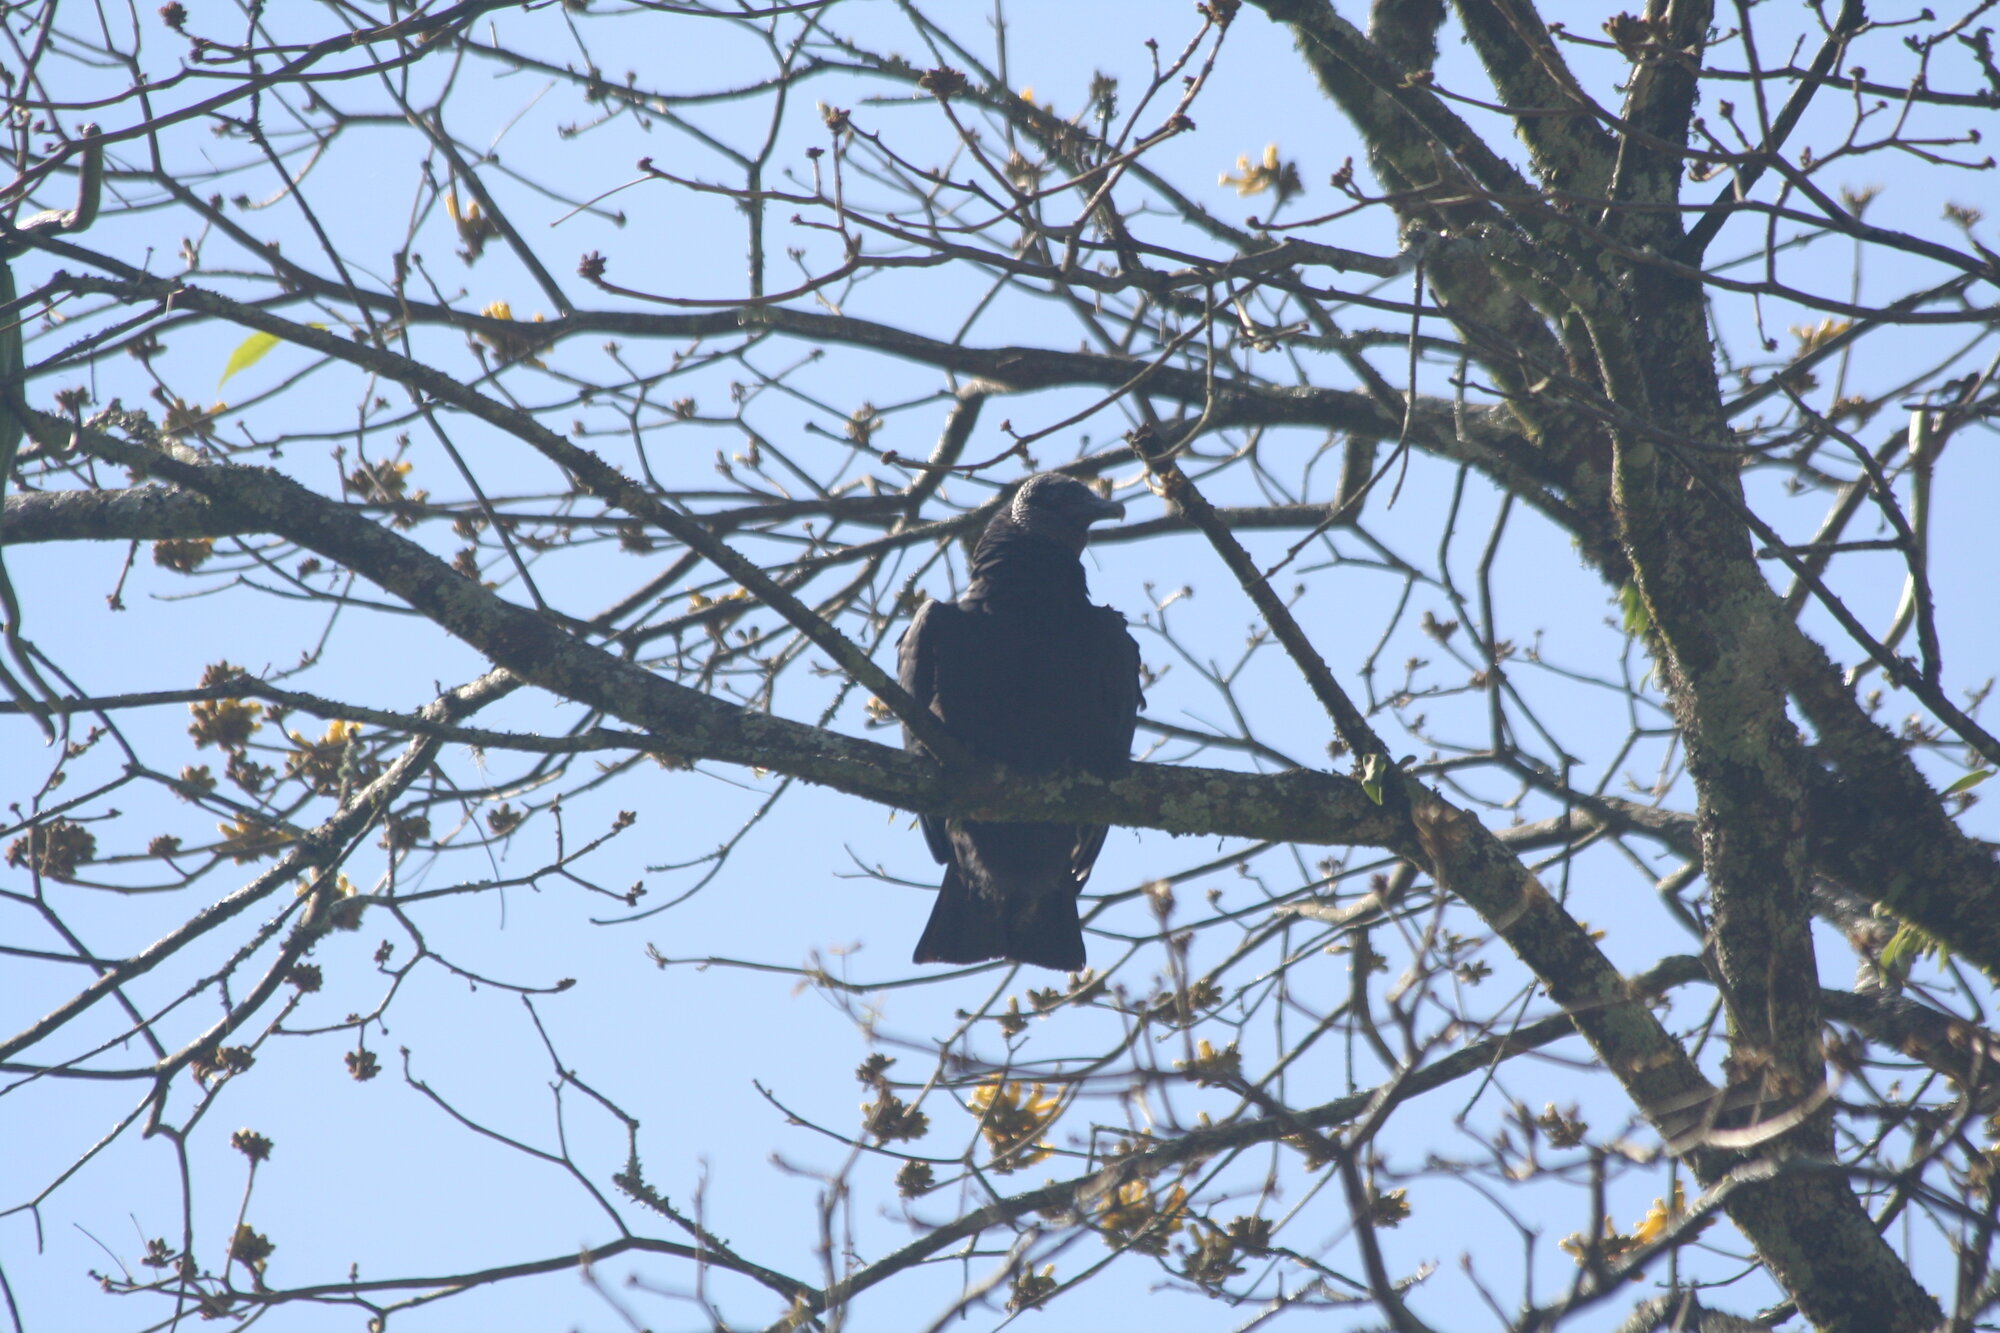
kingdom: Animalia
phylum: Chordata
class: Aves
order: Accipitriformes
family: Cathartidae
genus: Coragyps
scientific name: Coragyps atratus
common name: Black vulture
